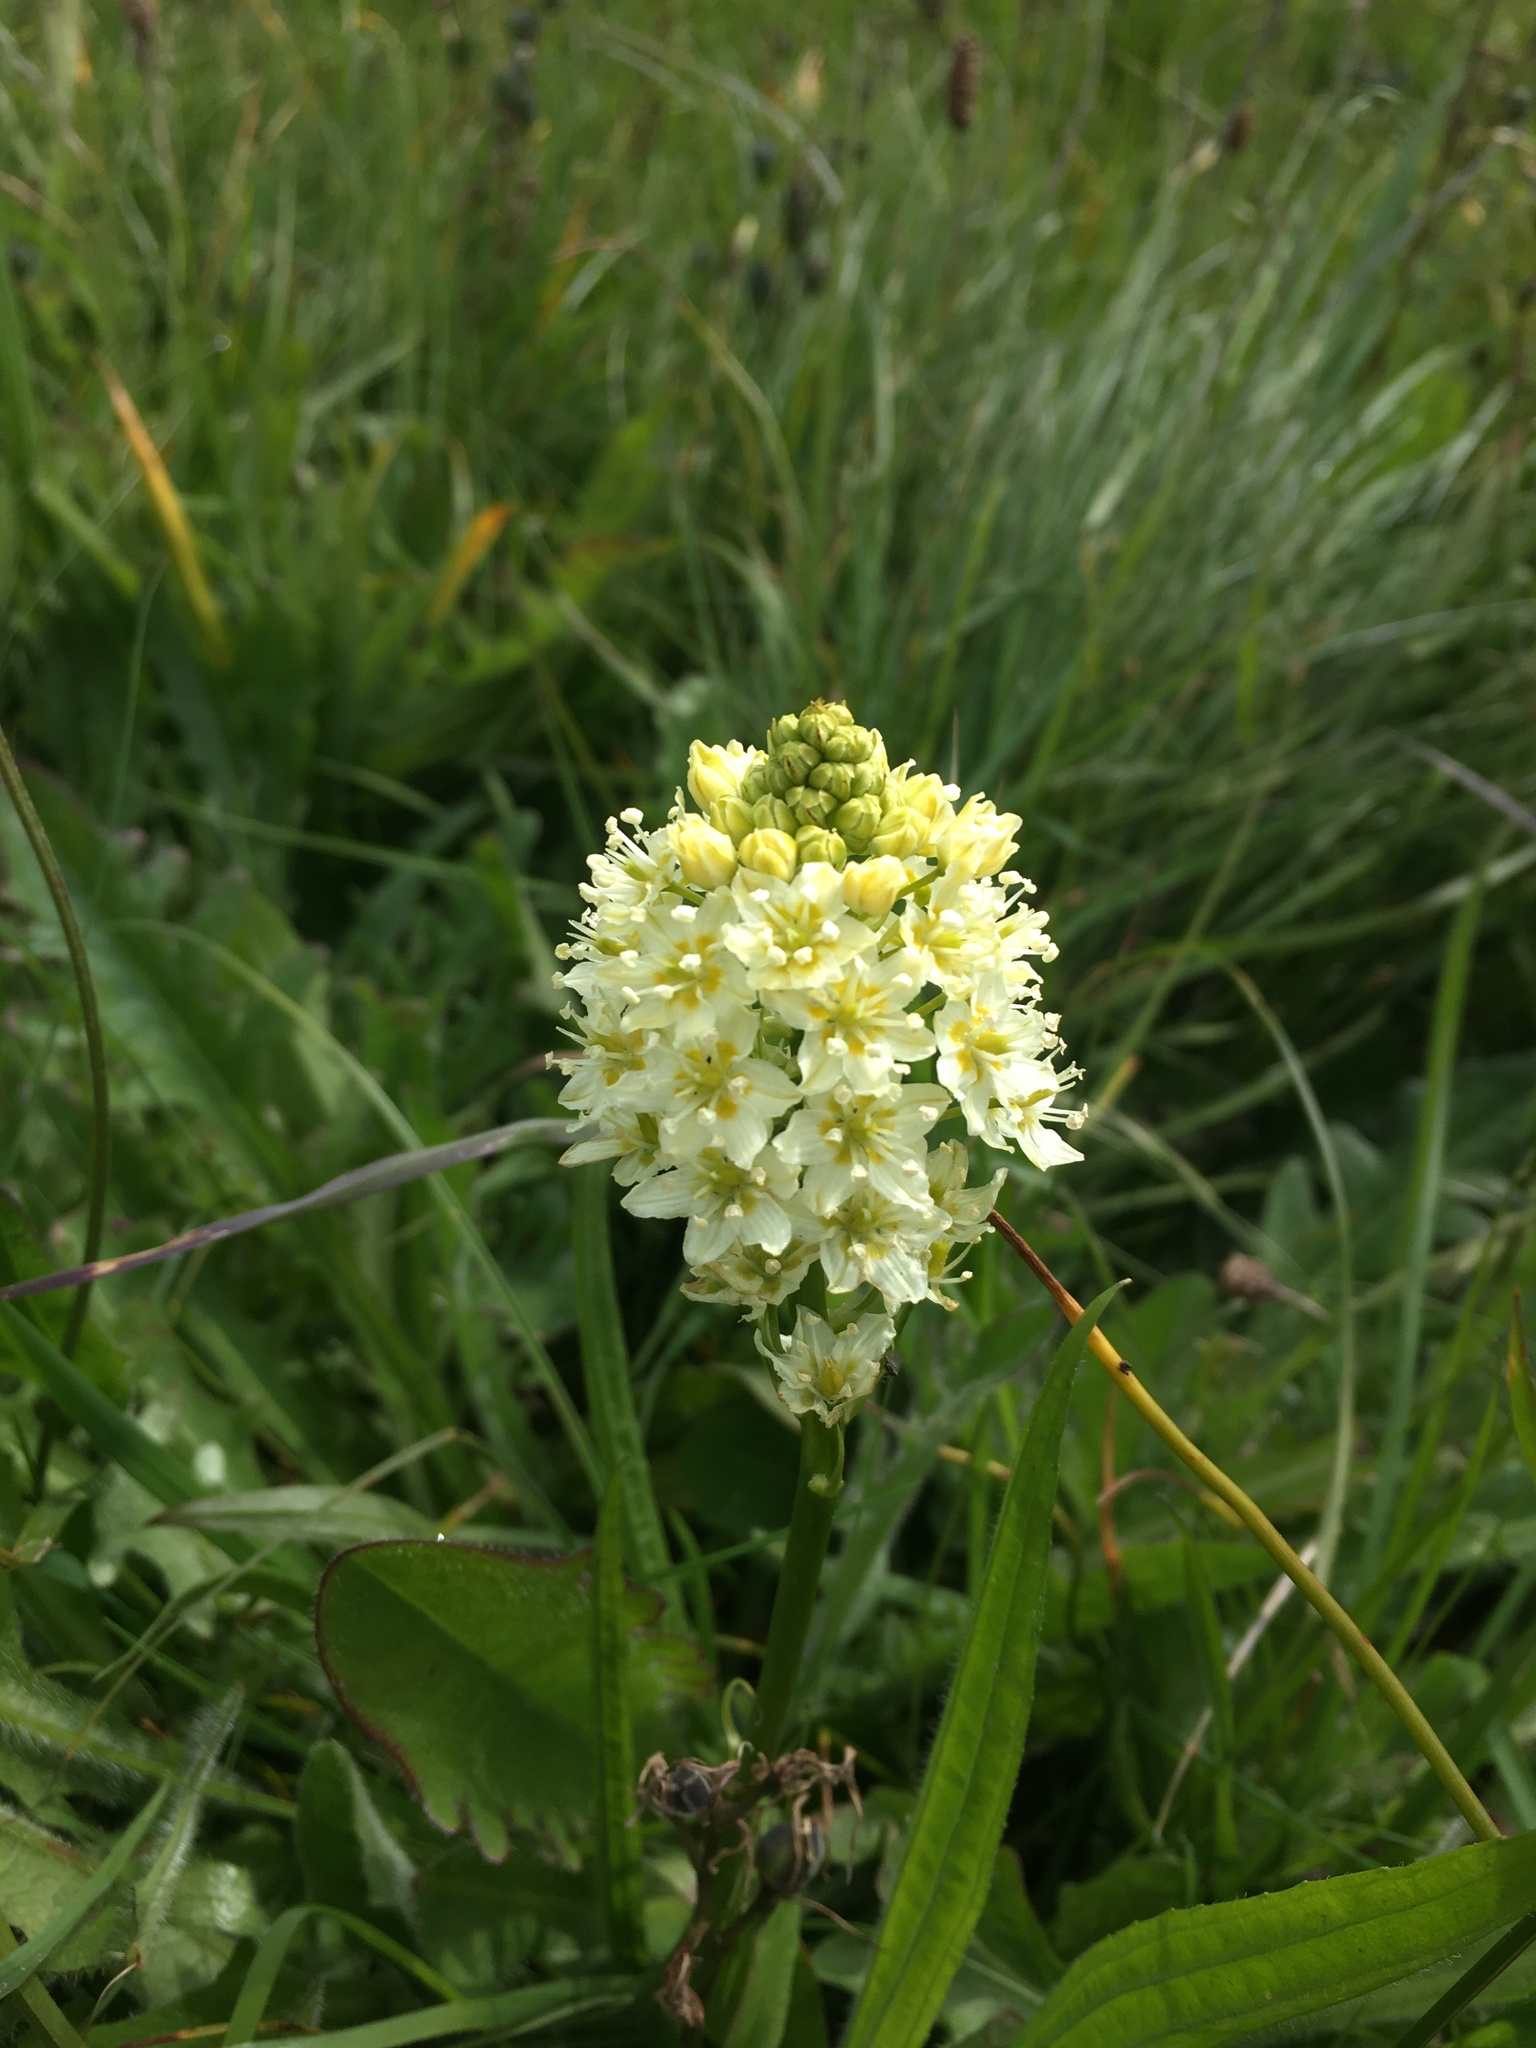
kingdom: Plantae
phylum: Tracheophyta
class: Liliopsida
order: Liliales
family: Melanthiaceae
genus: Toxicoscordion
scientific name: Toxicoscordion venenosum
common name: Meadow death camas
